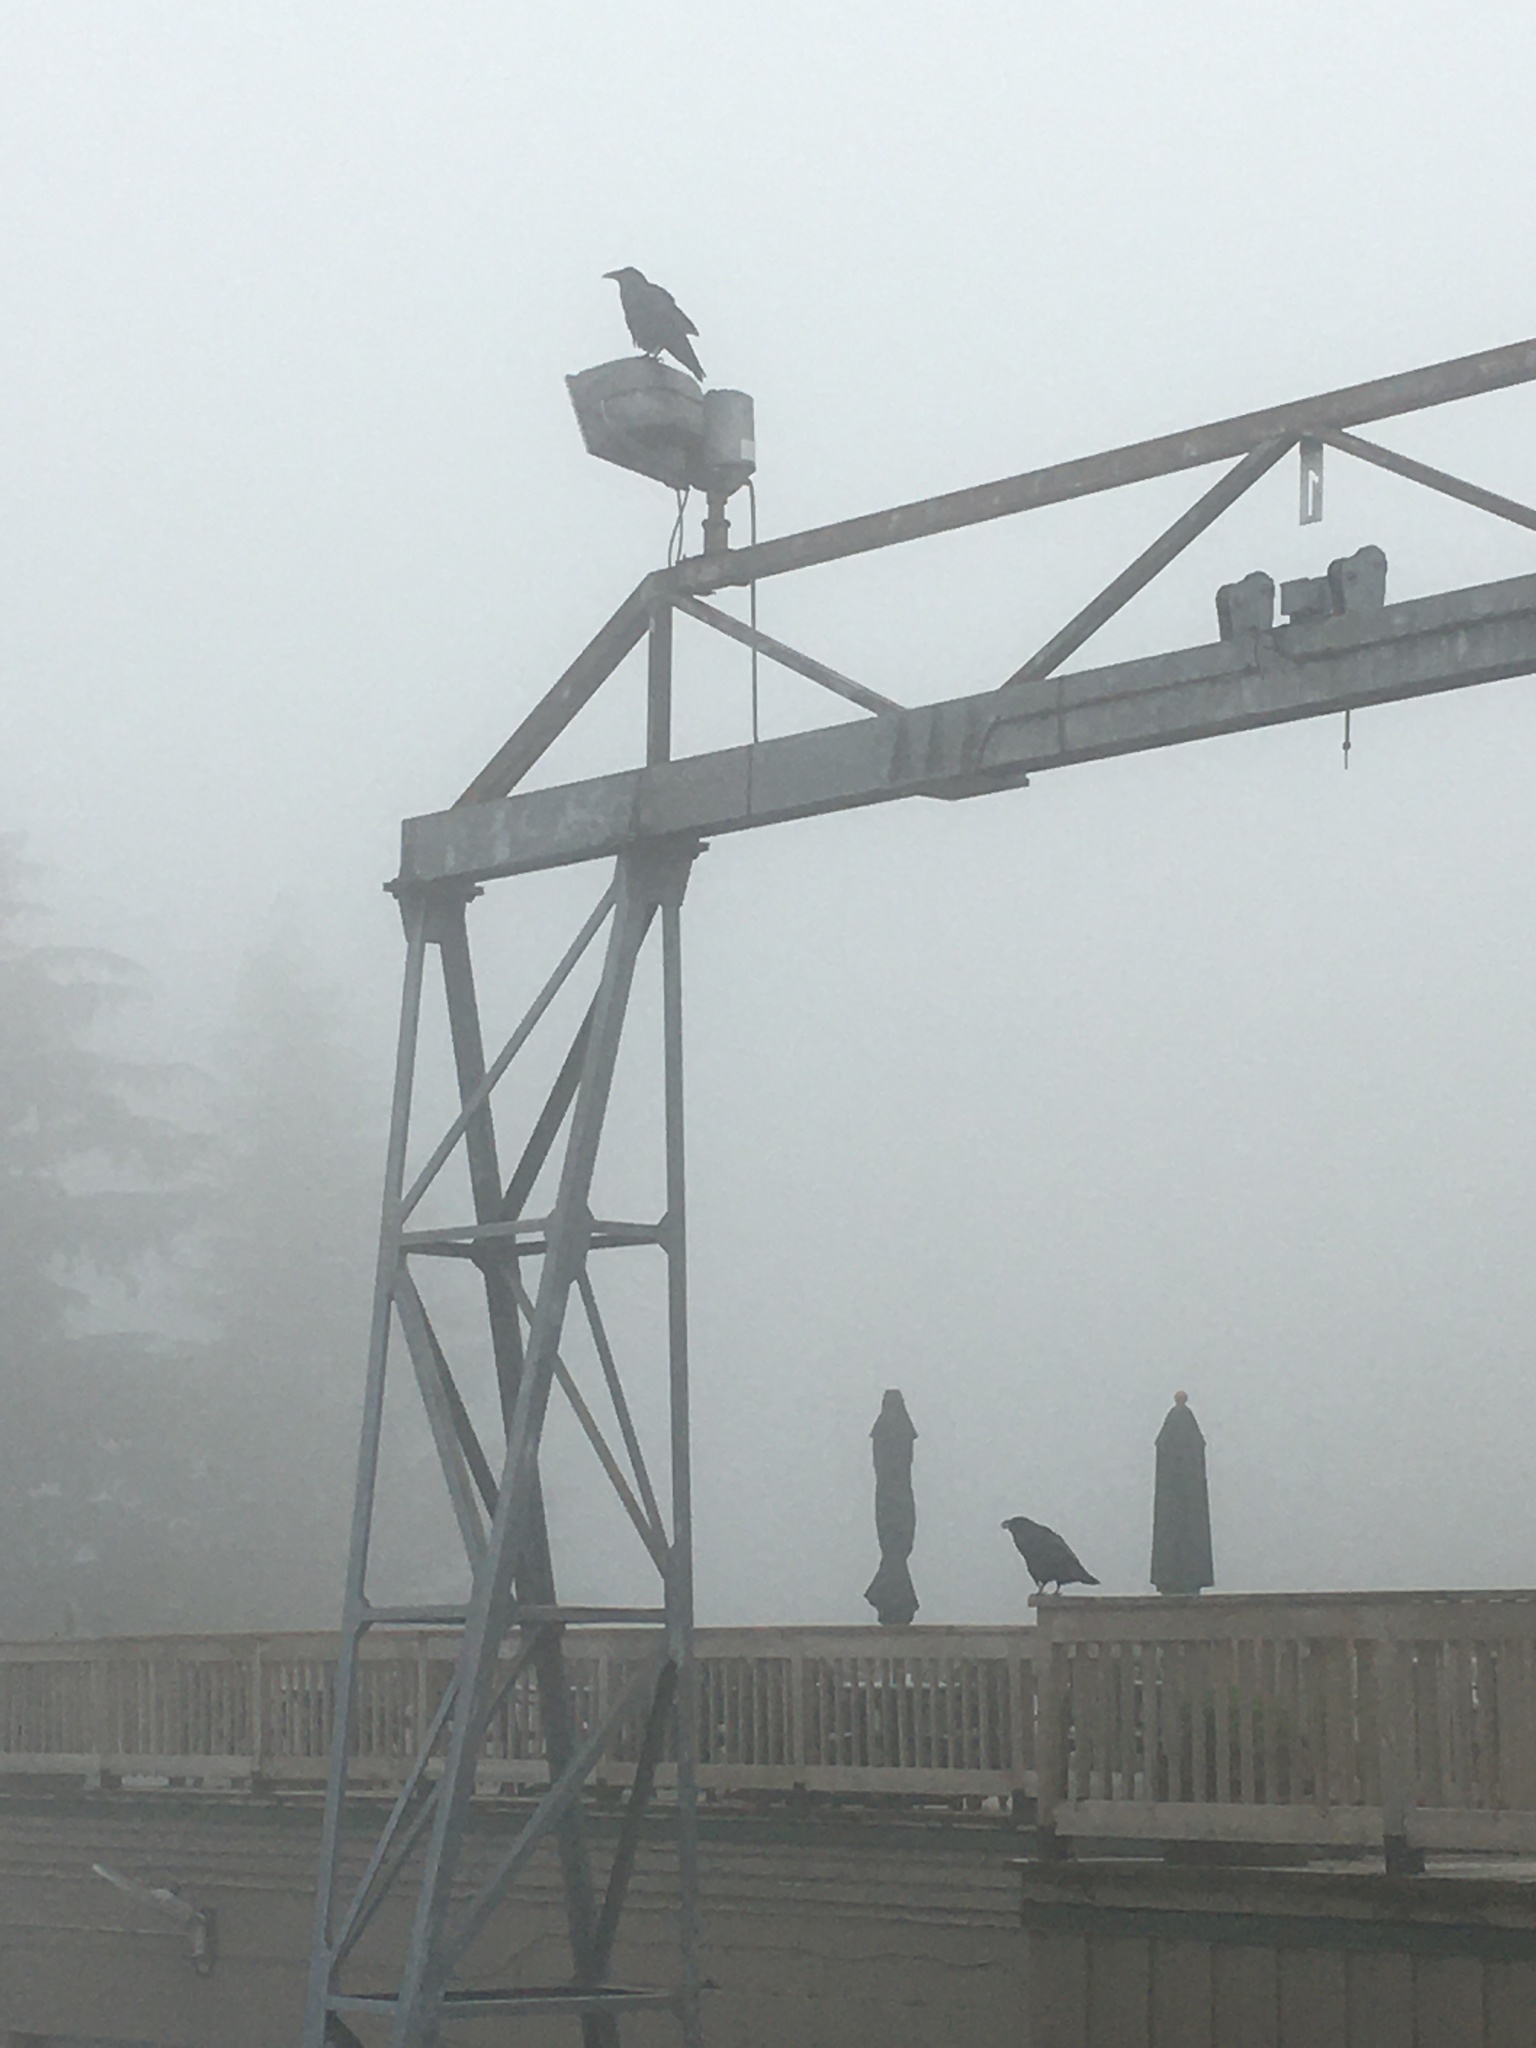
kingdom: Animalia
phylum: Chordata
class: Aves
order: Passeriformes
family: Corvidae
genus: Corvus
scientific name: Corvus corax
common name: Common raven
